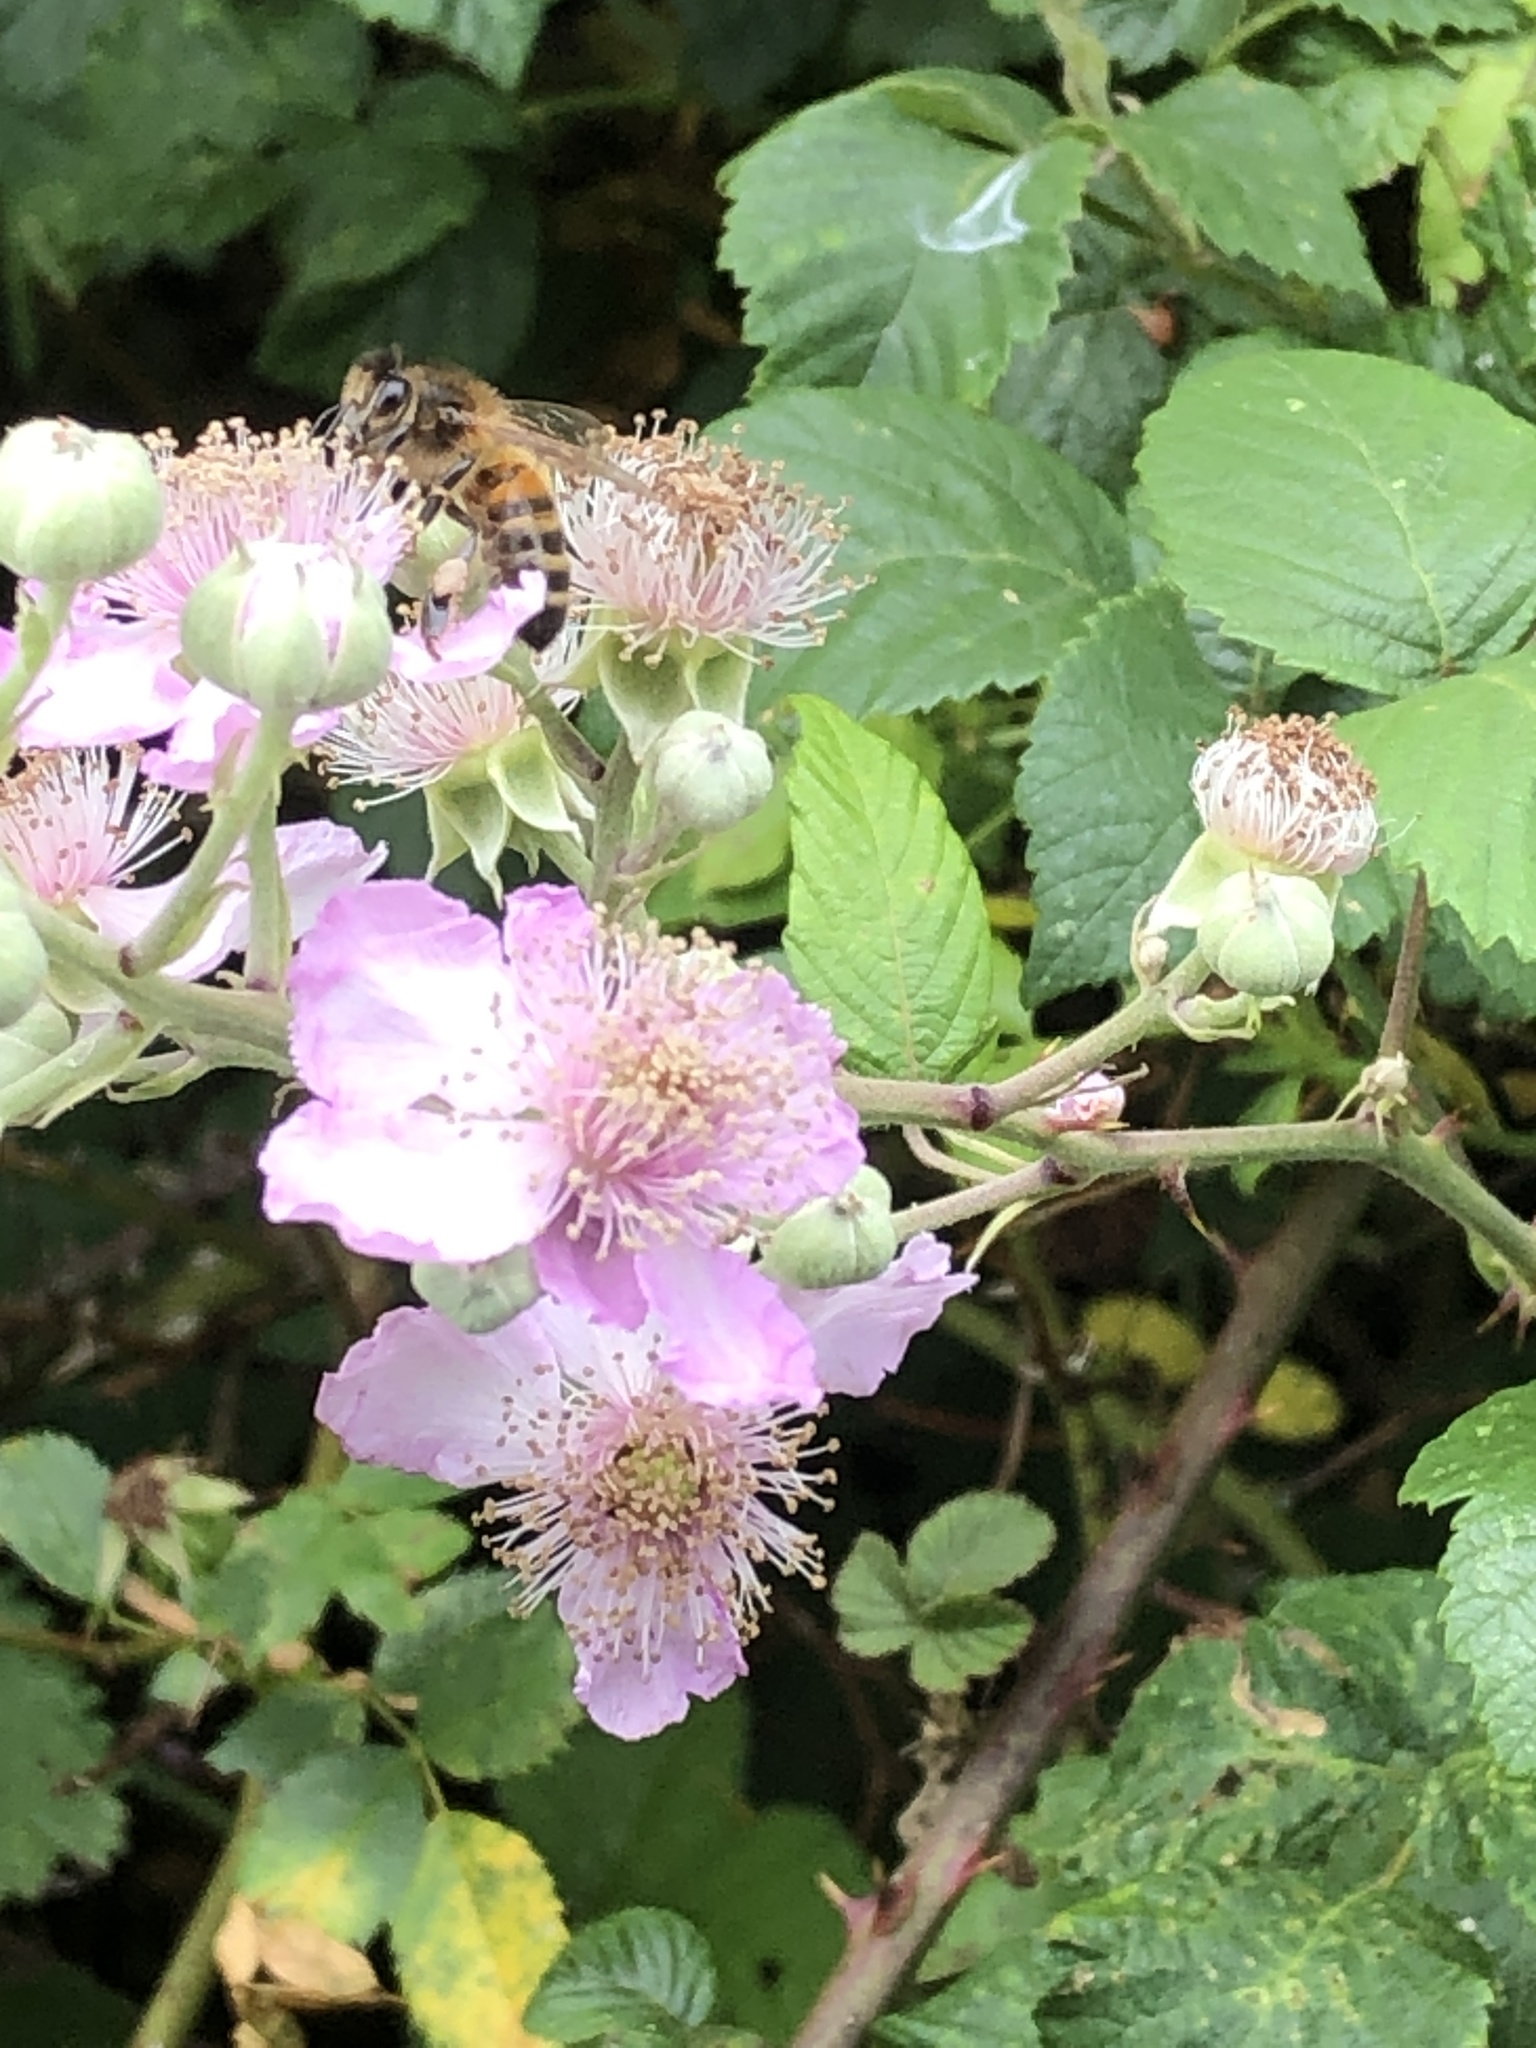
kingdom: Animalia
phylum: Arthropoda
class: Insecta
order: Hymenoptera
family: Apidae
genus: Apis
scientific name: Apis mellifera
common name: Honey bee
